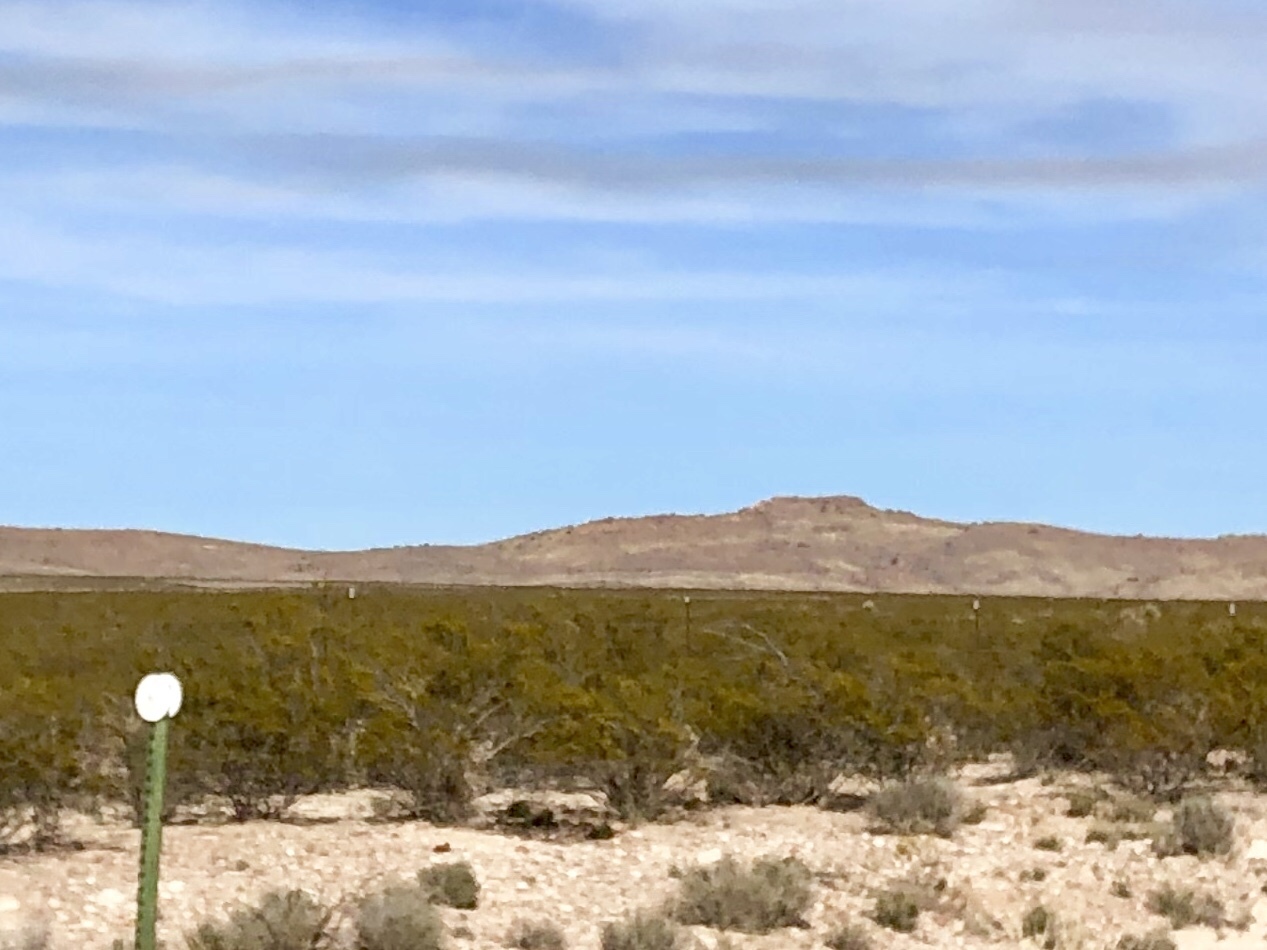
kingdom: Plantae
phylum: Tracheophyta
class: Magnoliopsida
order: Zygophyllales
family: Zygophyllaceae
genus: Larrea
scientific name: Larrea tridentata
